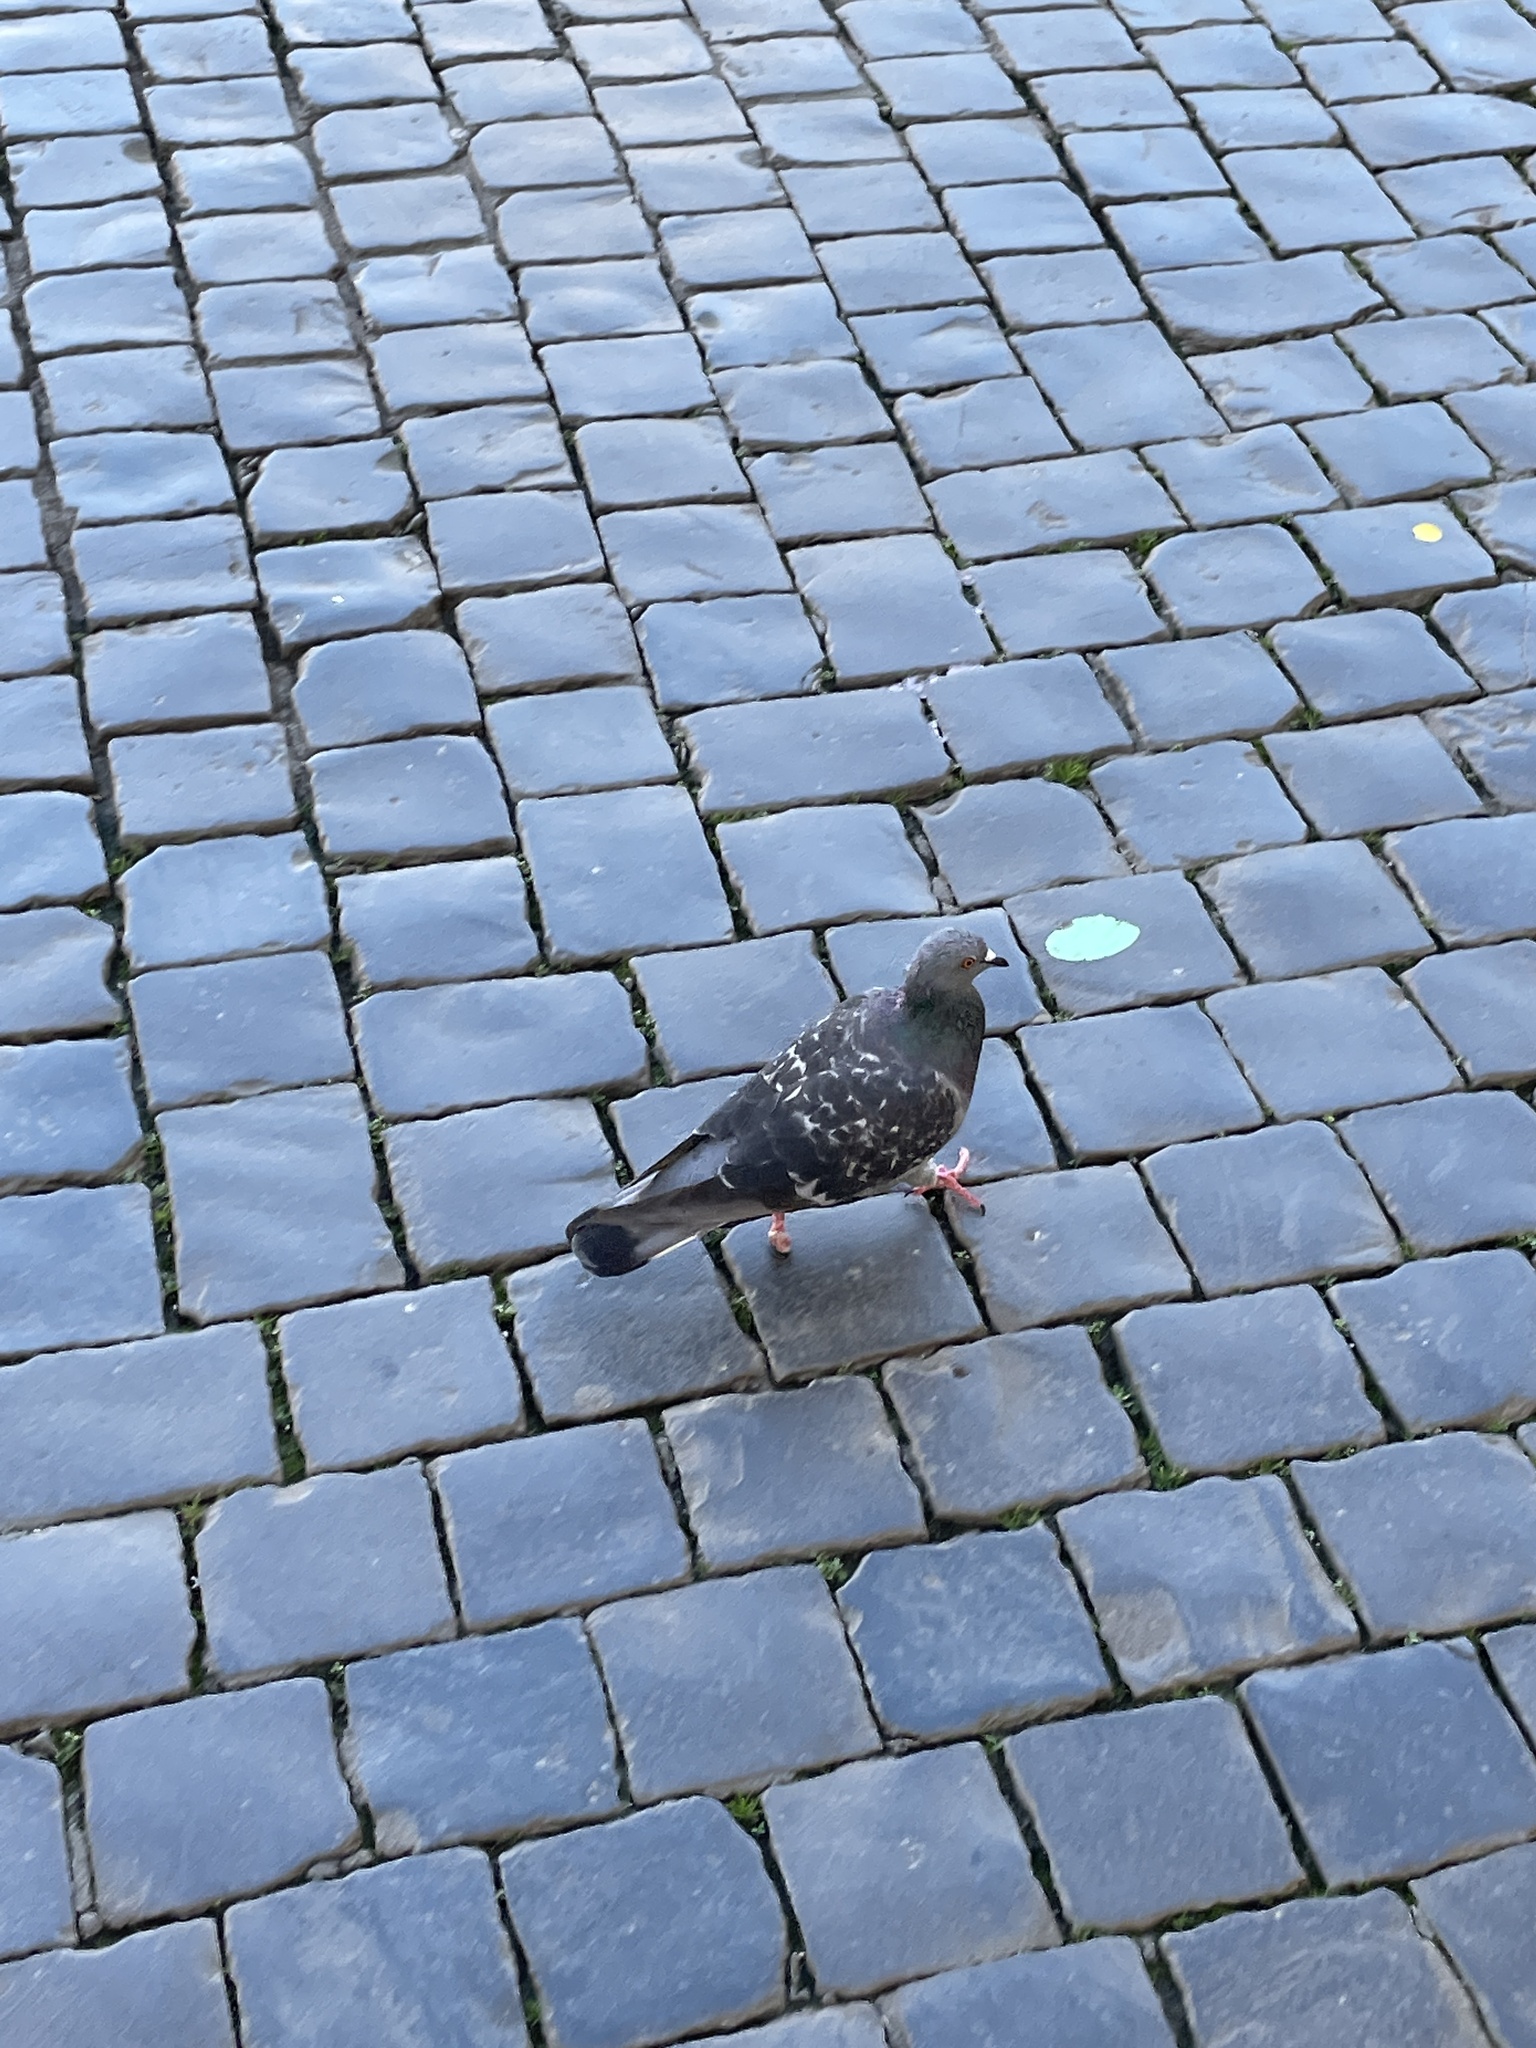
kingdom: Animalia
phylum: Chordata
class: Aves
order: Columbiformes
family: Columbidae
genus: Columba
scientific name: Columba livia
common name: Rock pigeon
